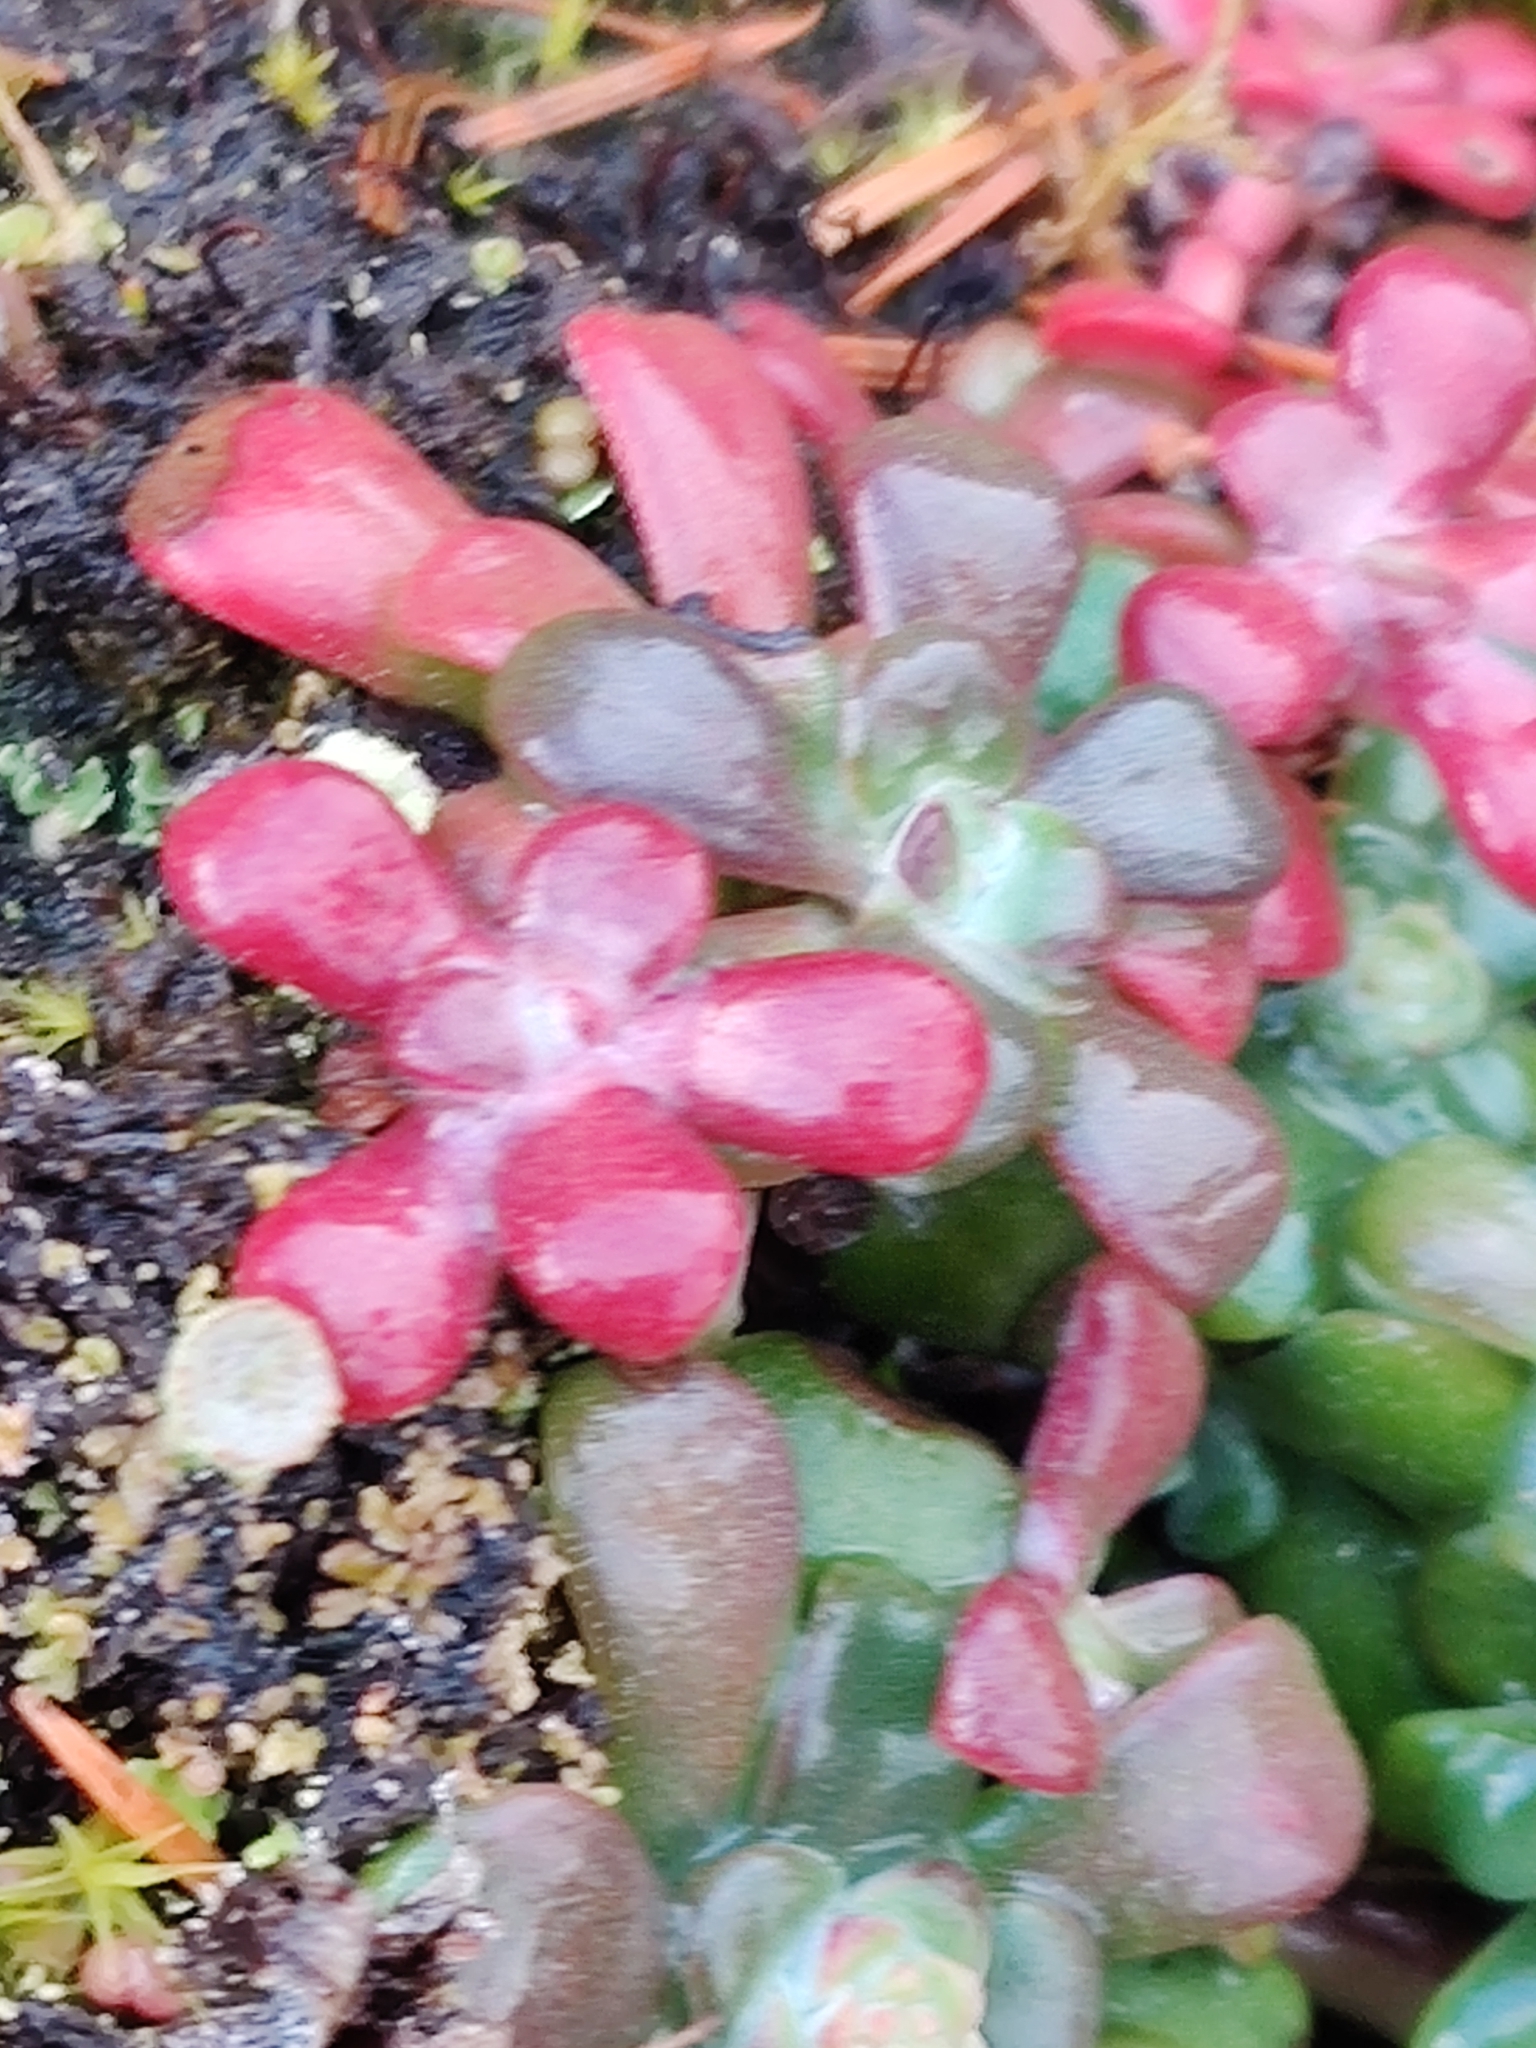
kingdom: Plantae
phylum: Tracheophyta
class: Magnoliopsida
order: Saxifragales
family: Crassulaceae
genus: Sedum
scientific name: Sedum spathulifolium
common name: Colorado stonecrop
